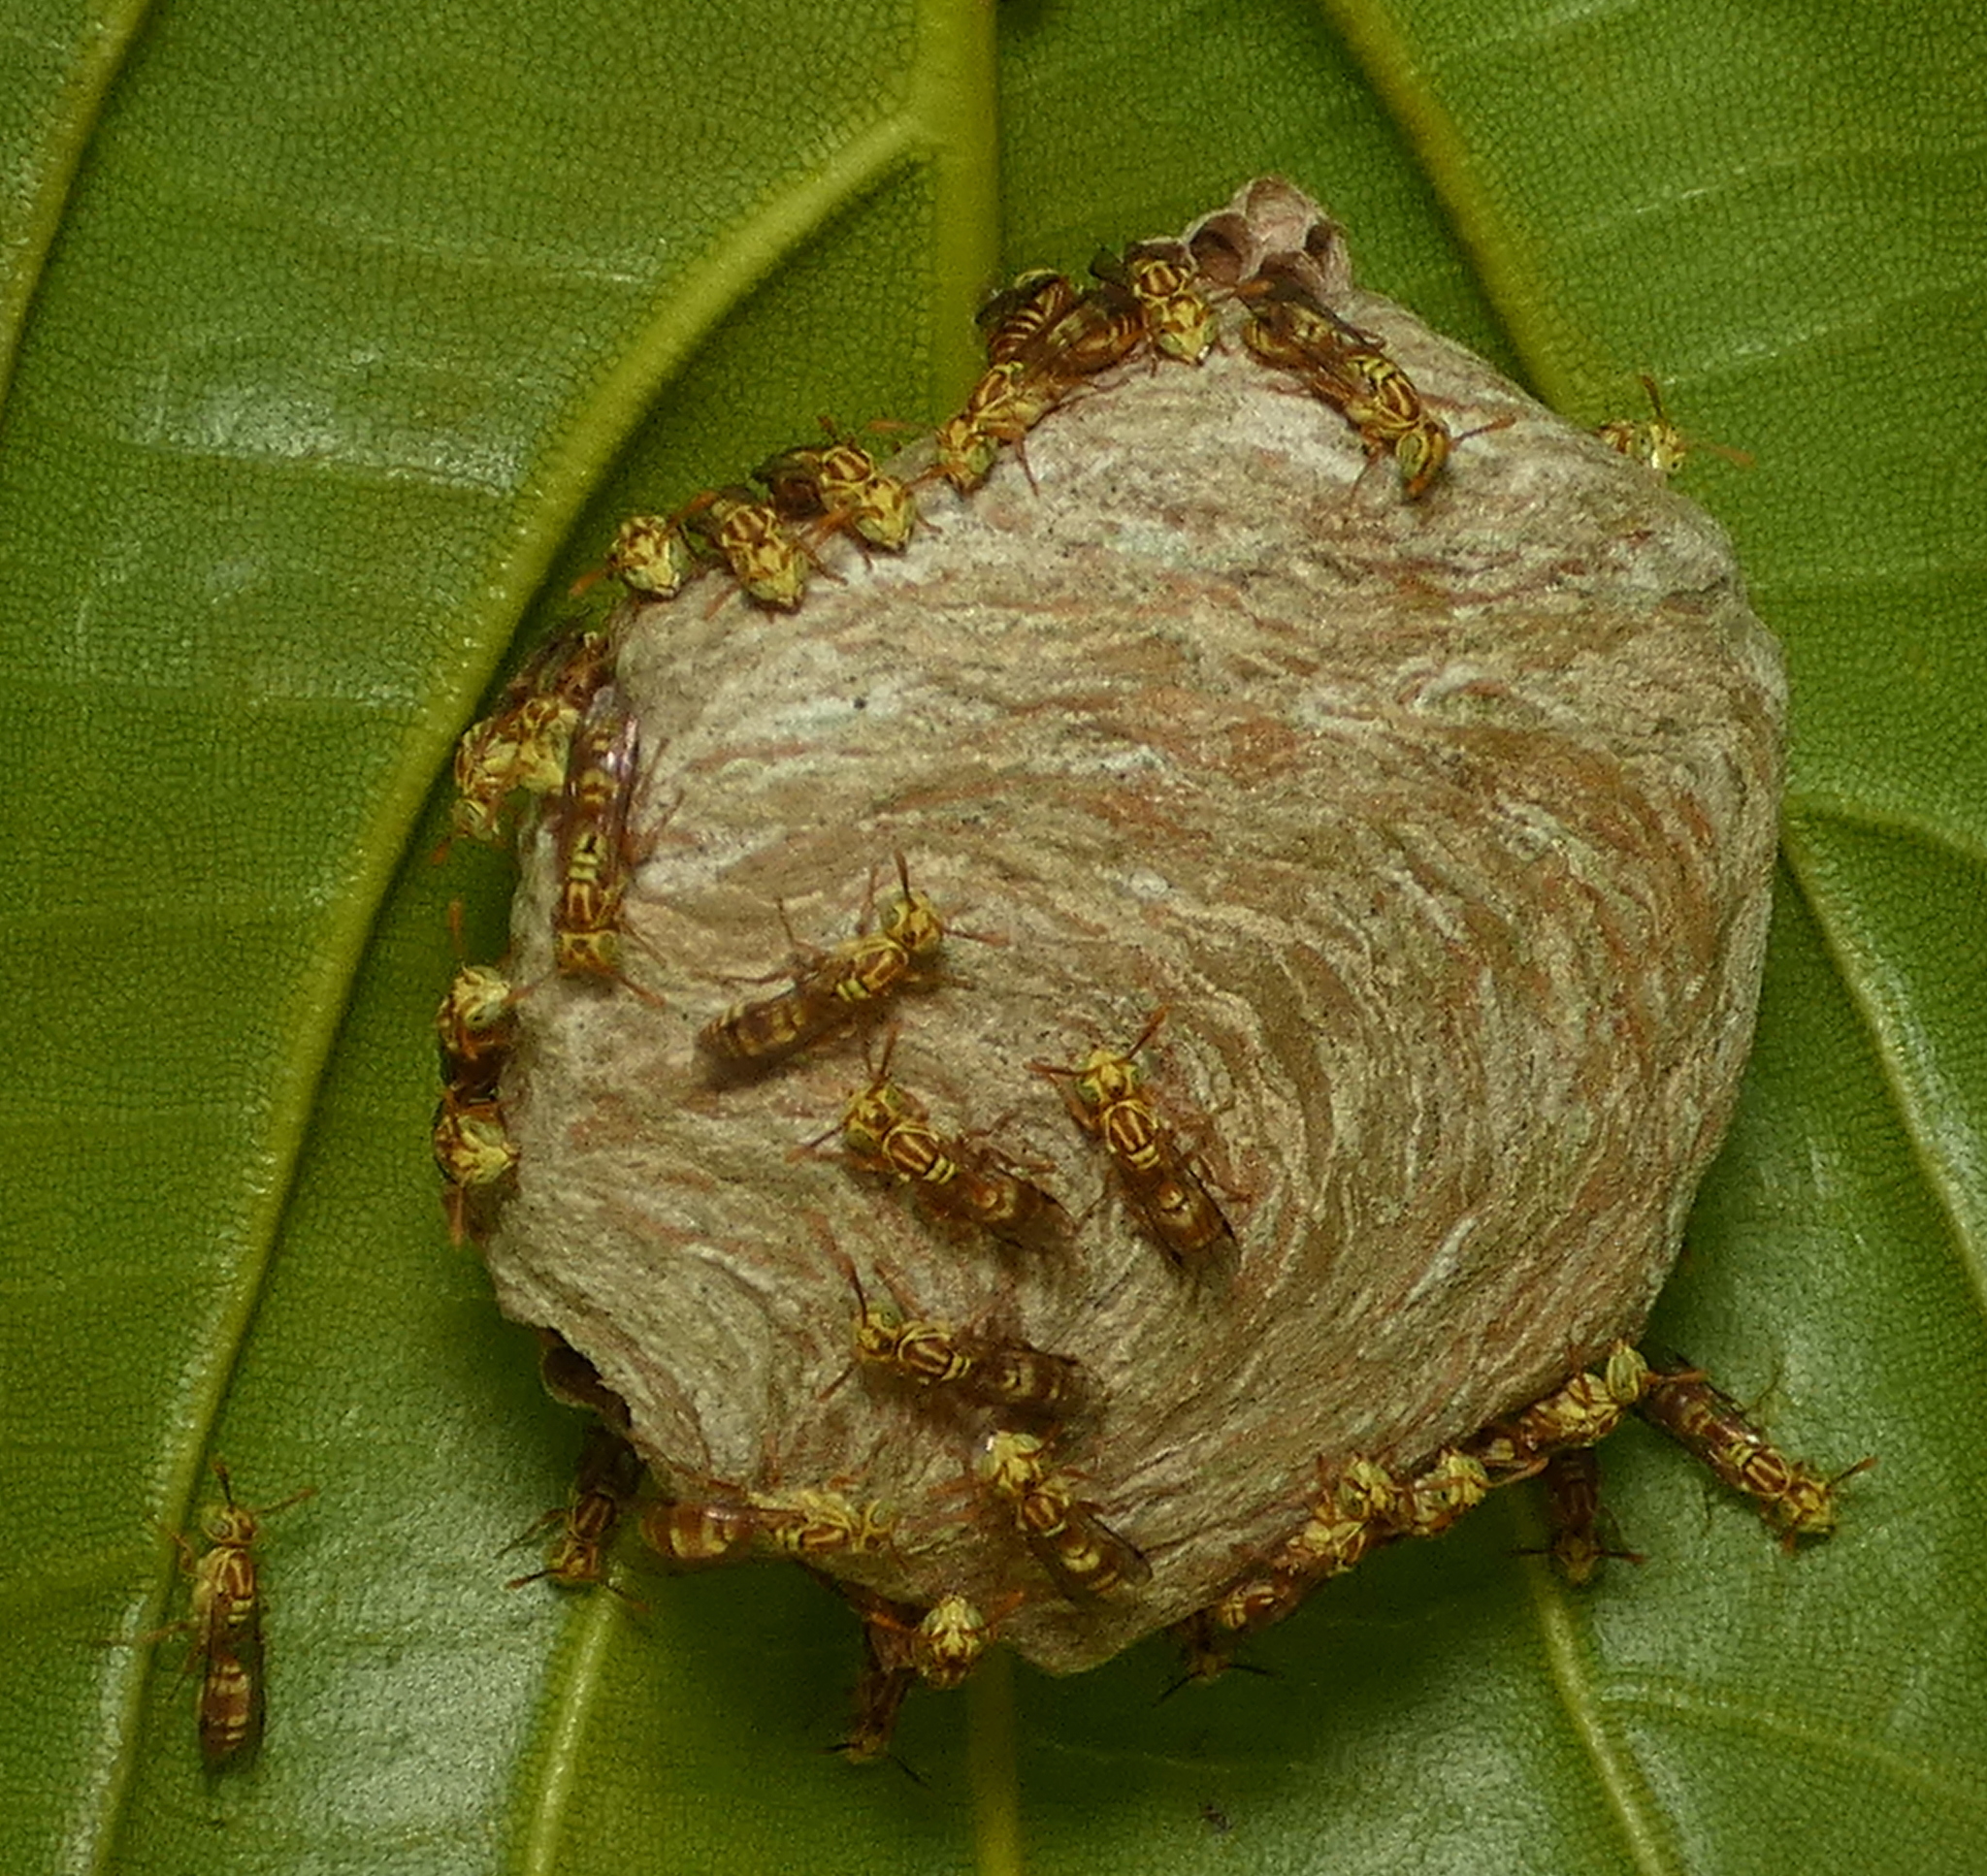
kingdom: Animalia
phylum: Arthropoda
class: Insecta
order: Hymenoptera
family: Vespidae
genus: Protopolybia
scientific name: Protopolybia potiguara
